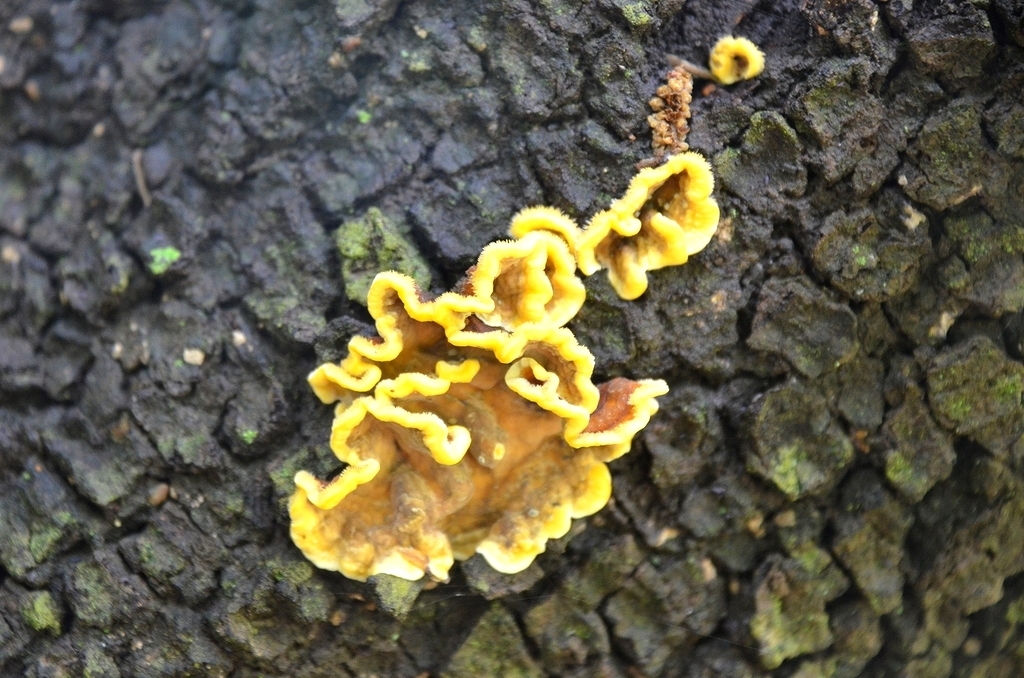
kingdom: Fungi
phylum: Basidiomycota
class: Agaricomycetes
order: Russulales
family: Stereaceae
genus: Stereum
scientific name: Stereum hirsutum
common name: Hairy curtain crust
